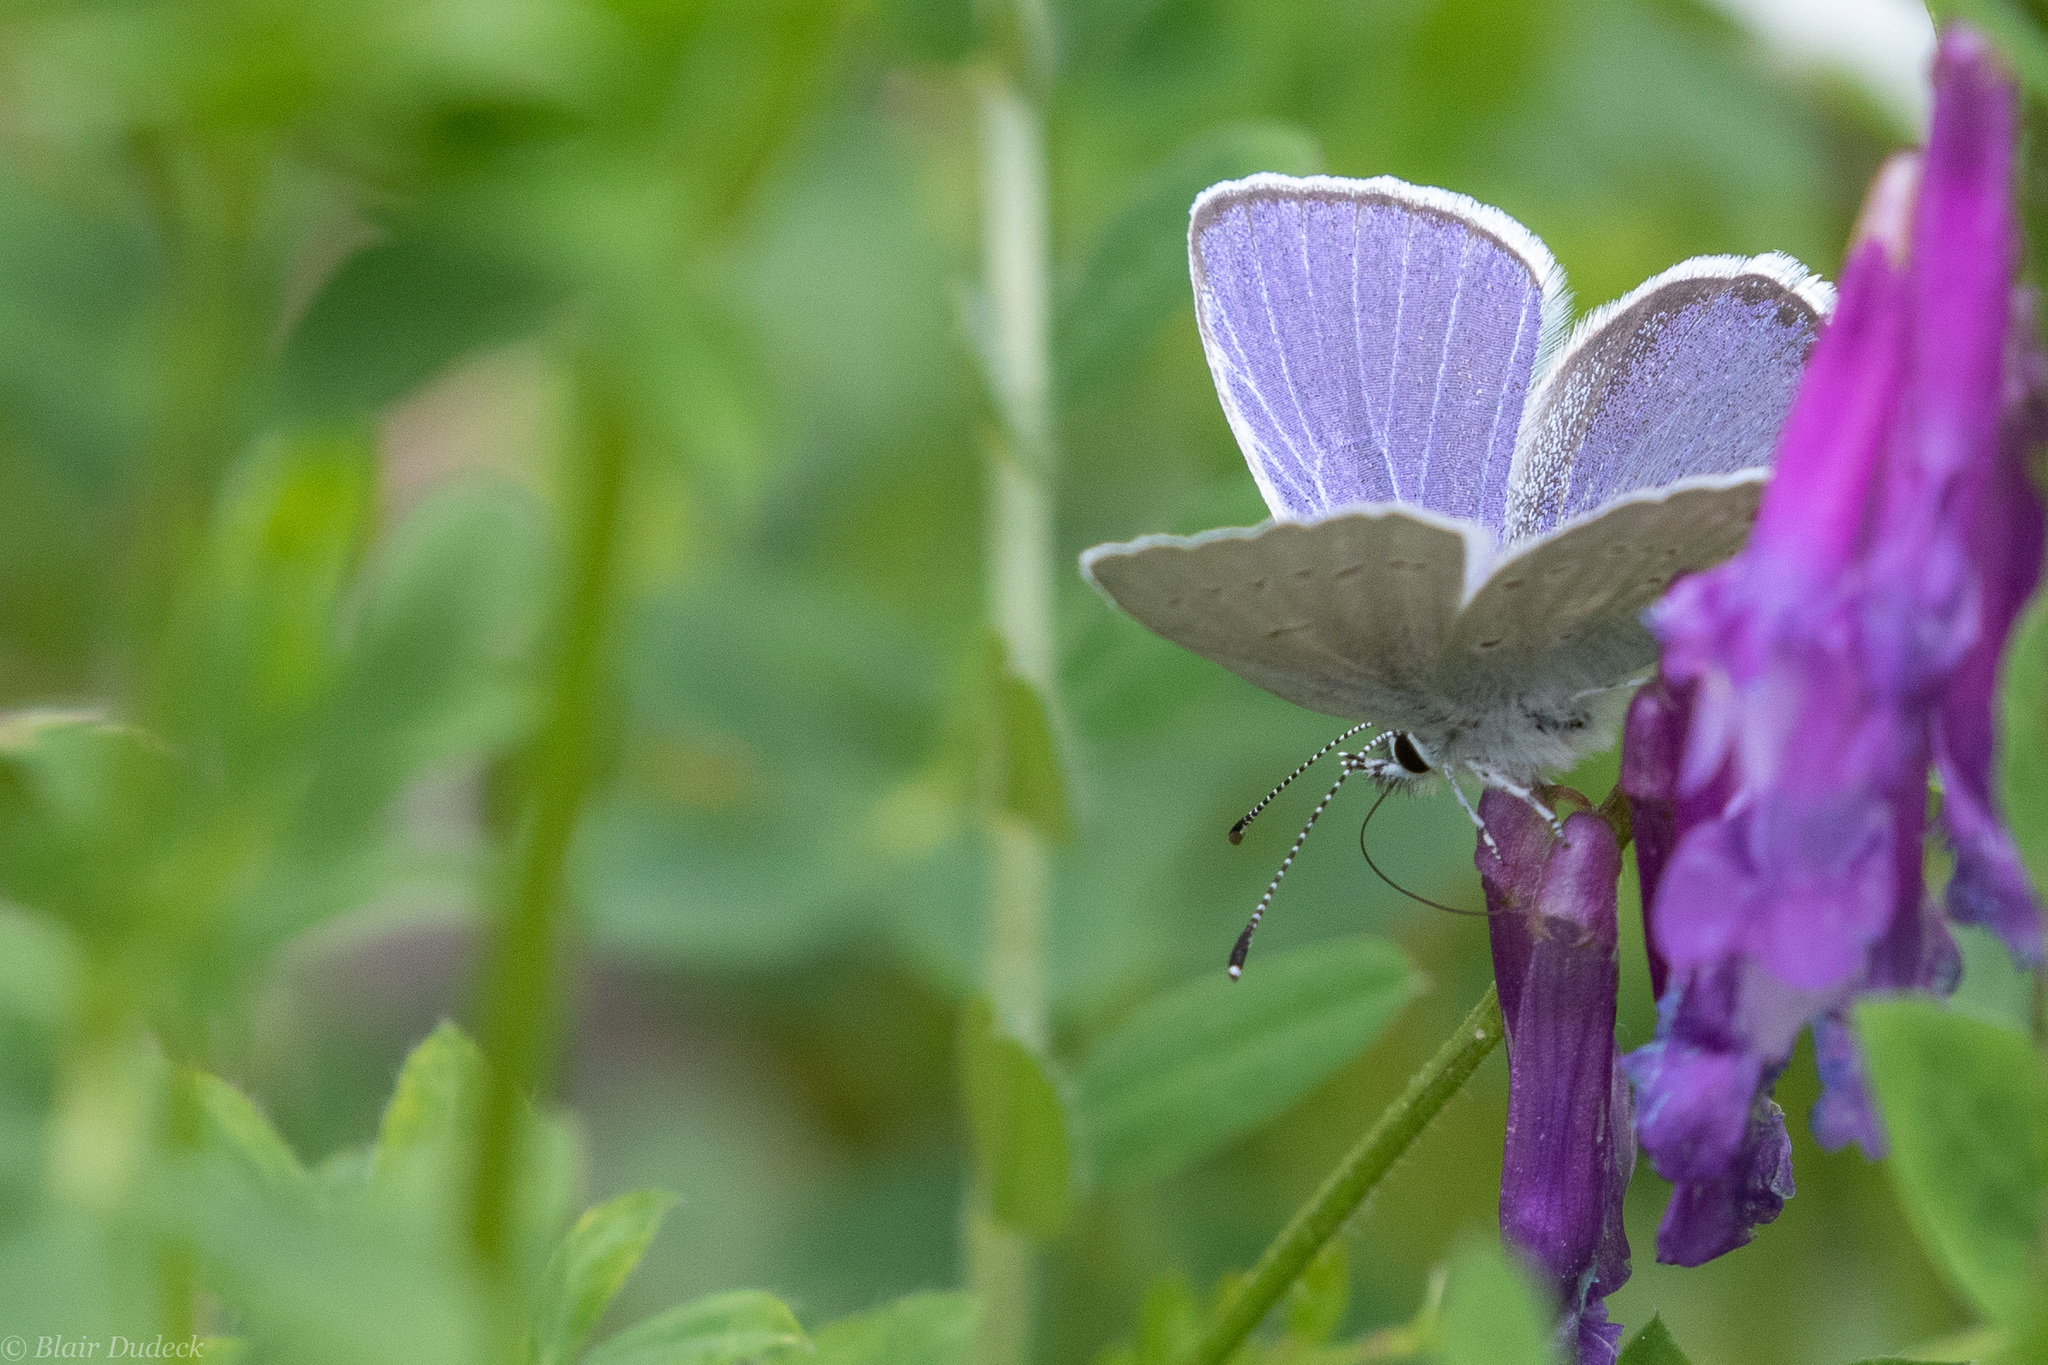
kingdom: Animalia
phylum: Arthropoda
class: Insecta
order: Lepidoptera
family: Lycaenidae
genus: Glaucopsyche
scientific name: Glaucopsyche lygdamus
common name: Silvery blue
